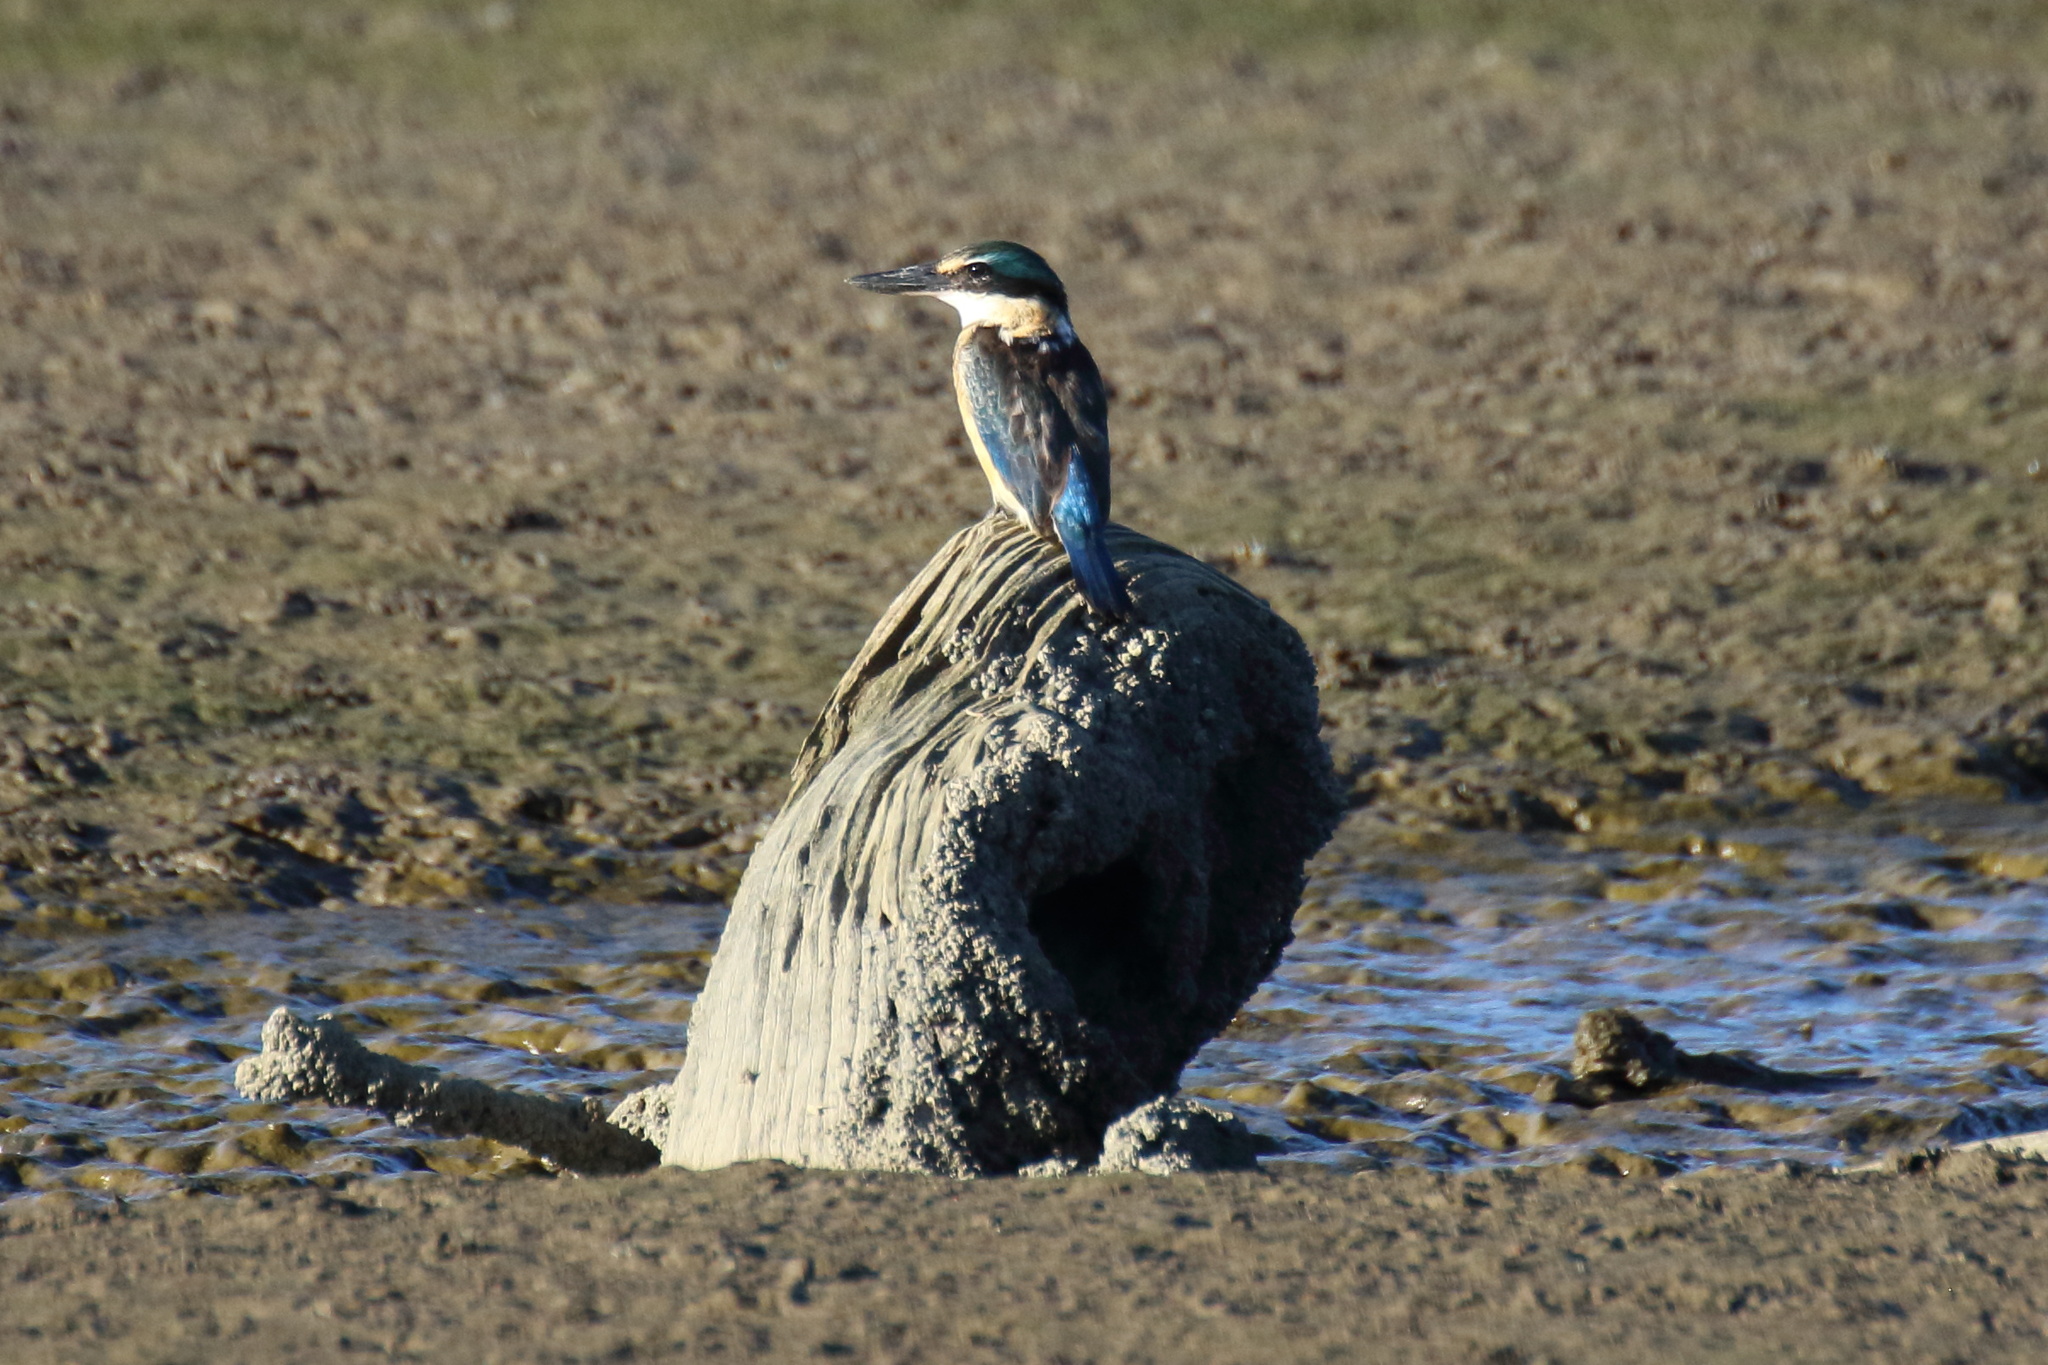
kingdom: Animalia
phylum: Chordata
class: Aves
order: Coraciiformes
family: Alcedinidae
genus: Todiramphus
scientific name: Todiramphus sanctus
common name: Sacred kingfisher
